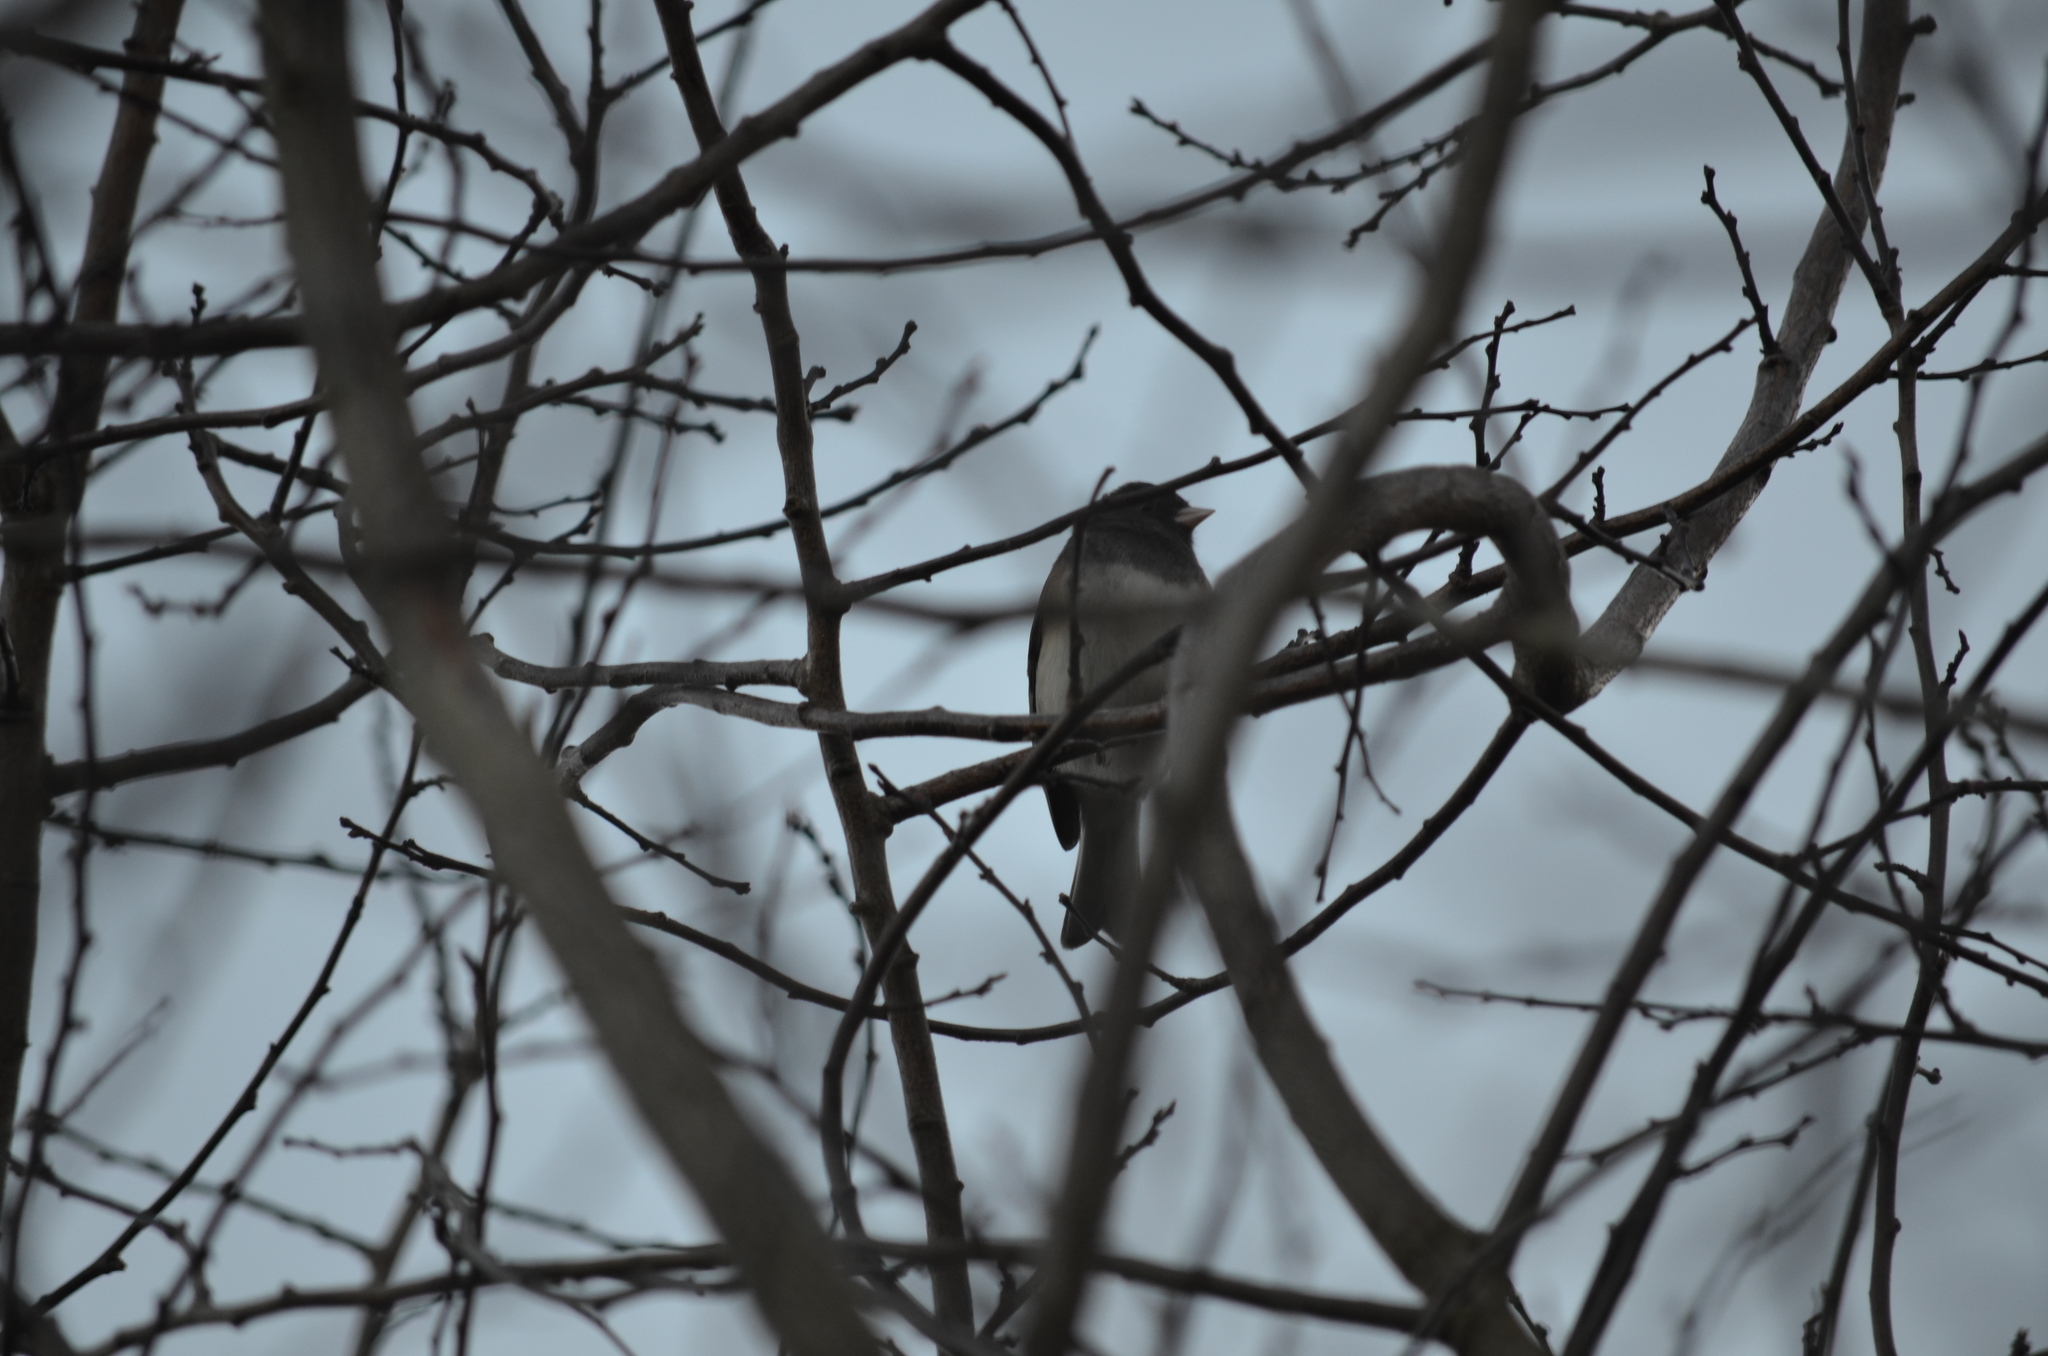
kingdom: Animalia
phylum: Chordata
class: Aves
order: Passeriformes
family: Passerellidae
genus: Junco
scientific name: Junco hyemalis
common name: Dark-eyed junco
